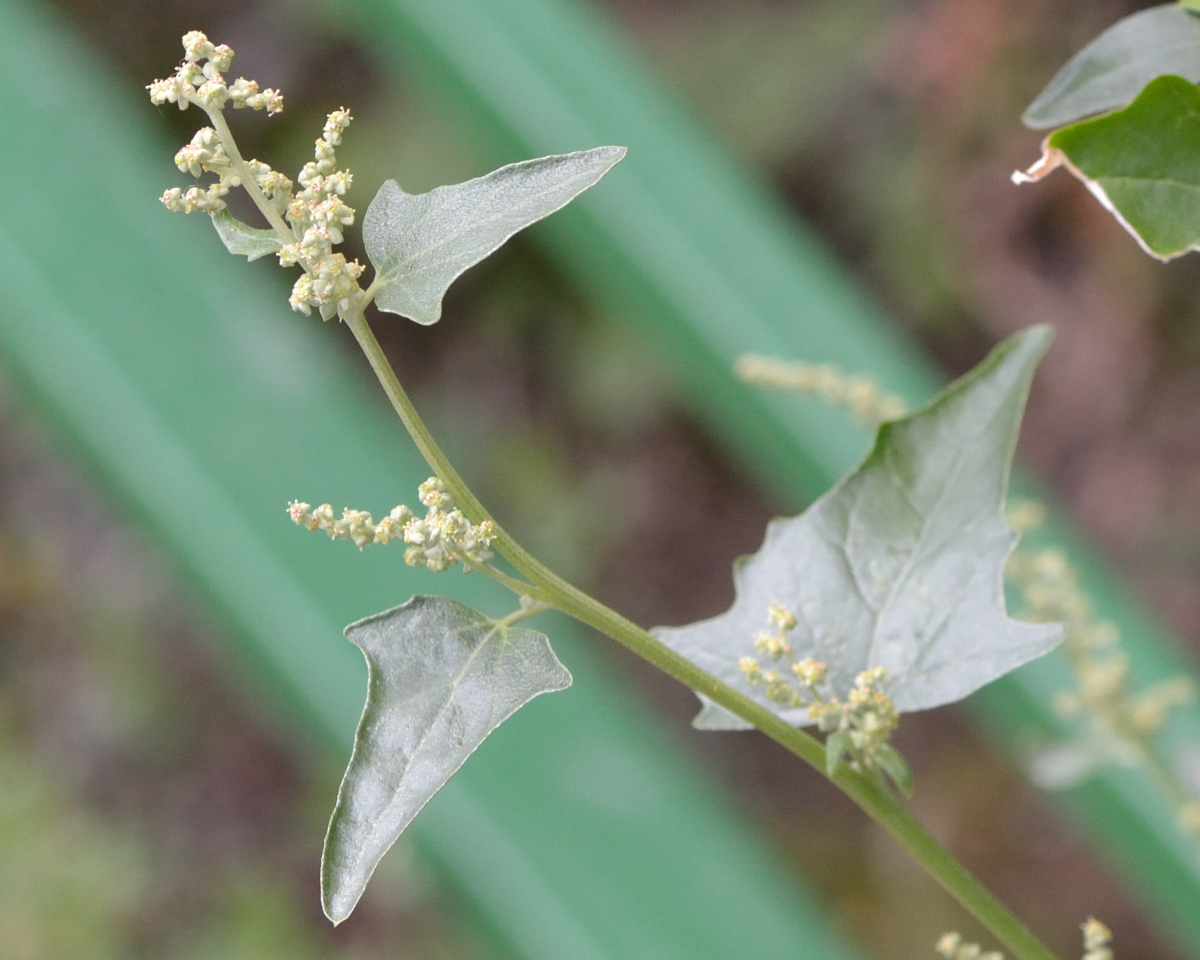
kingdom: Plantae
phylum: Tracheophyta
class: Magnoliopsida
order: Caryophyllales
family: Amaranthaceae
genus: Atriplex
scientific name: Atriplex sagittata
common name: Purple orache
